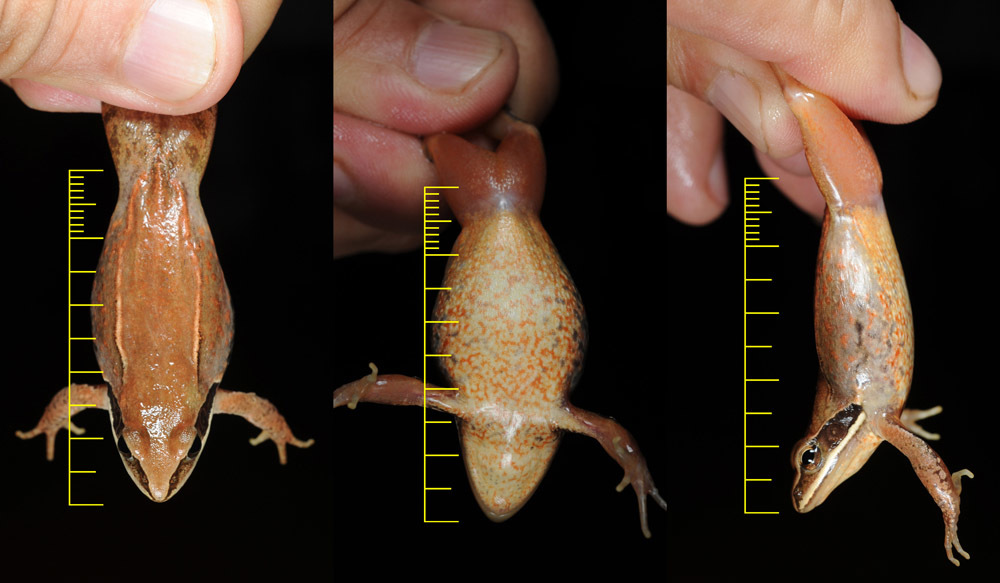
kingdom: Animalia
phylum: Chordata
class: Amphibia
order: Anura
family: Ranidae
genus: Rana
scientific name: Rana coreana
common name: Korean brown frog
